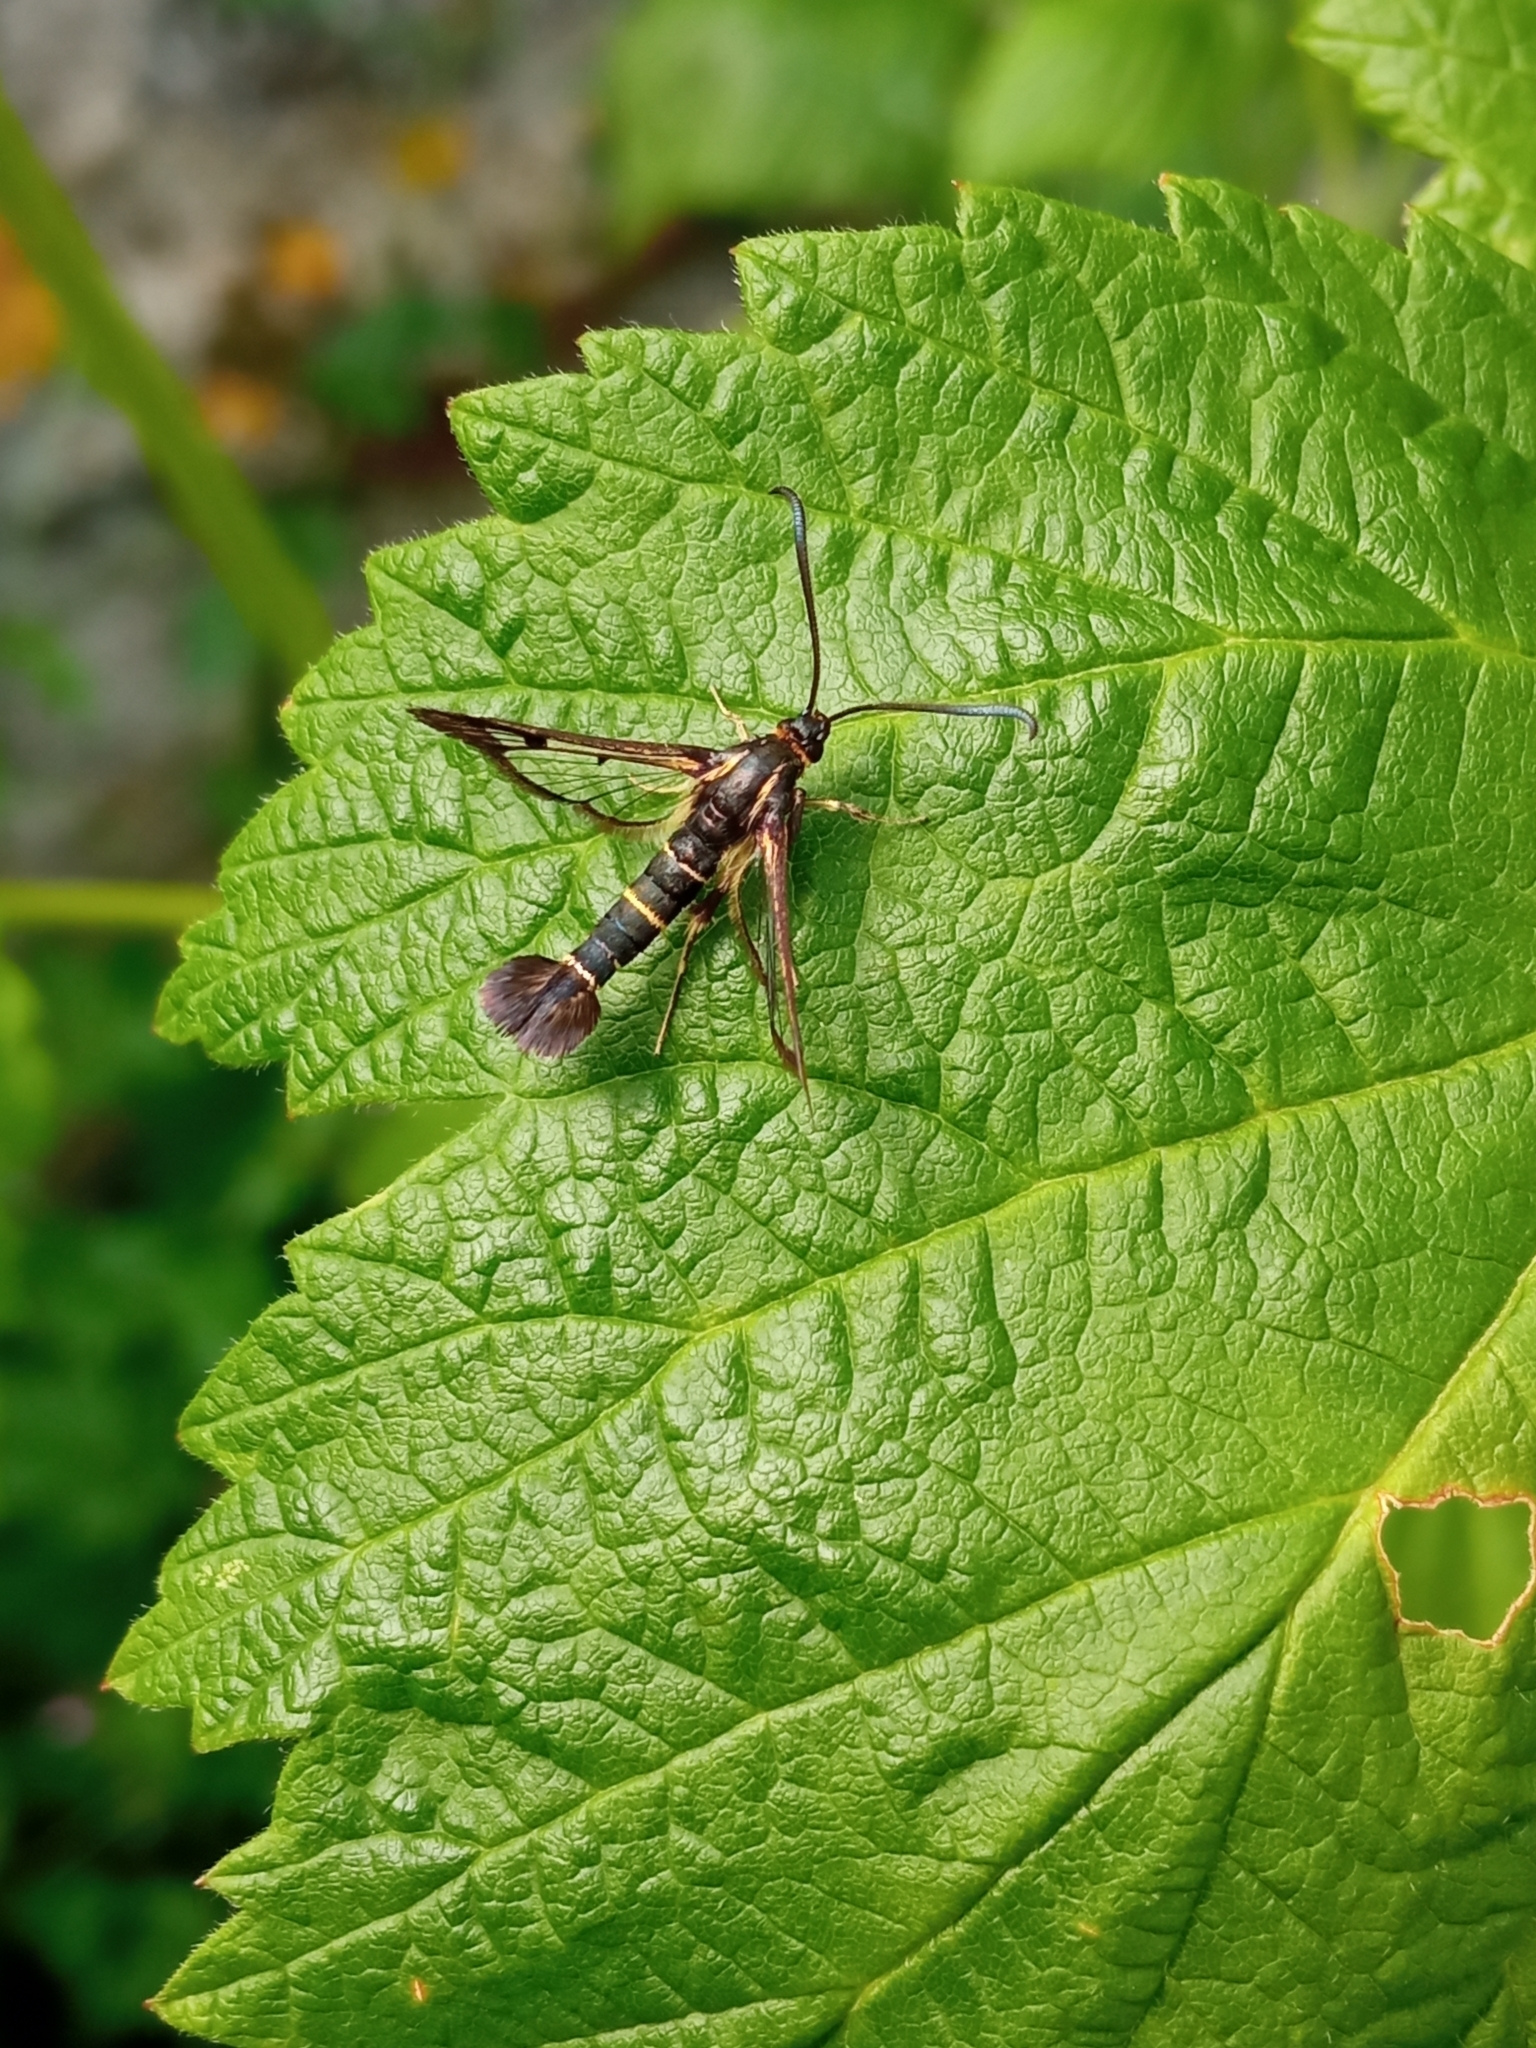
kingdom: Animalia
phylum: Arthropoda
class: Insecta
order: Lepidoptera
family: Sesiidae
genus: Synanthedon
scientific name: Synanthedon tipuliformis
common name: Currant clearwing
